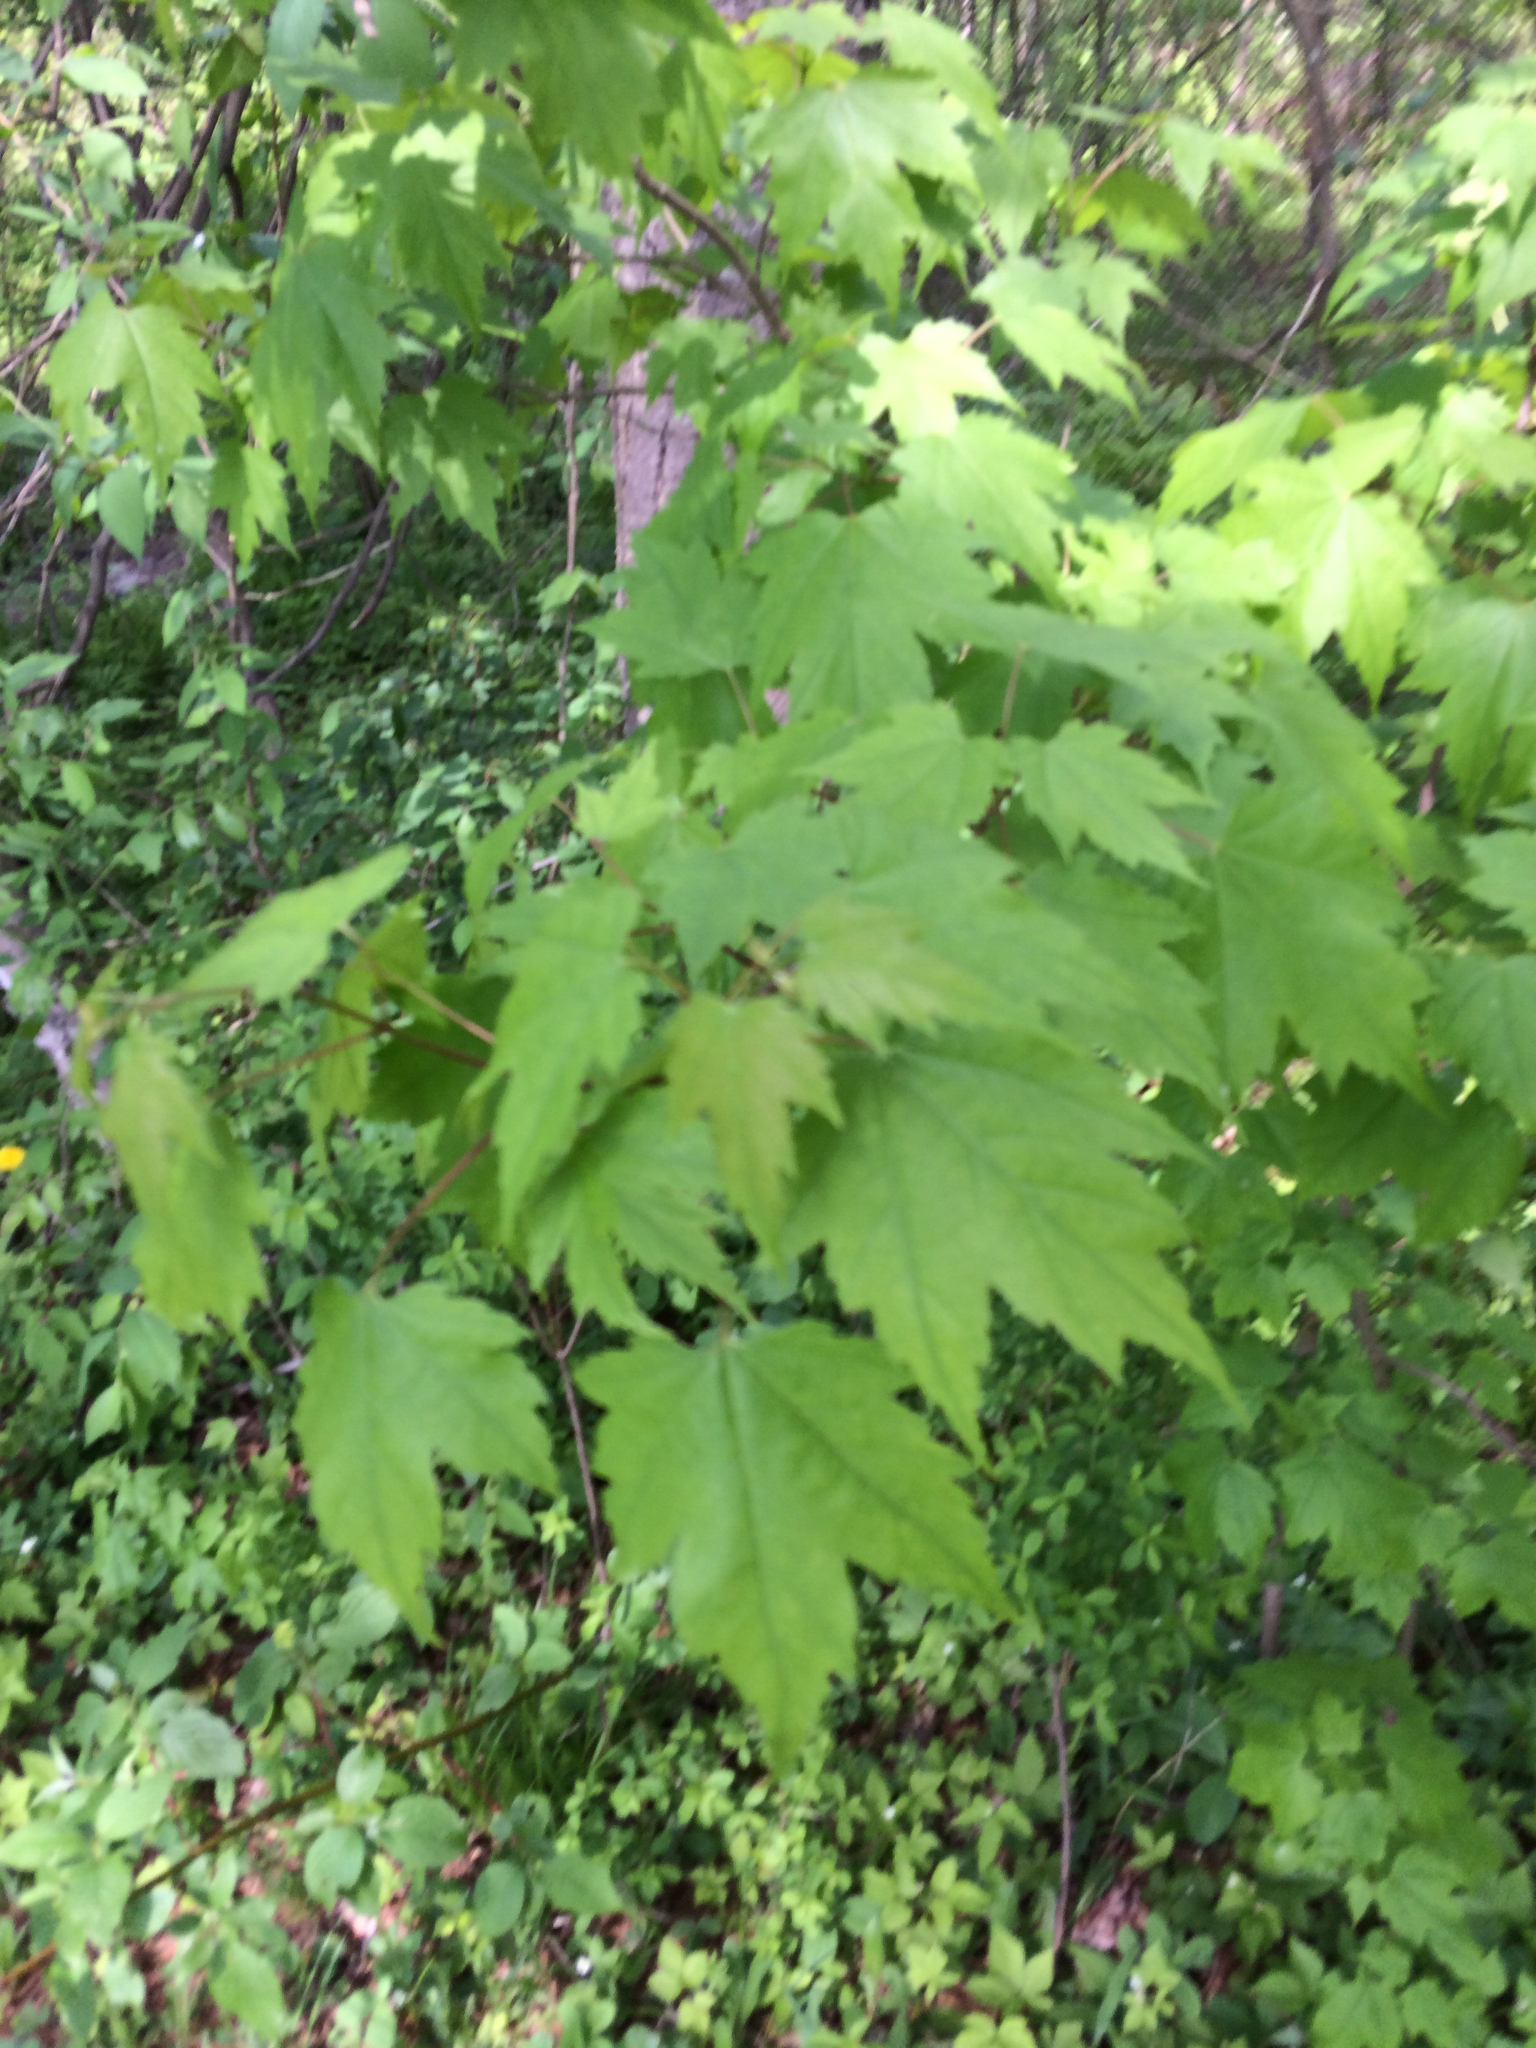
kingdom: Plantae
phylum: Tracheophyta
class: Magnoliopsida
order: Sapindales
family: Sapindaceae
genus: Acer
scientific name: Acer rubrum
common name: Red maple
